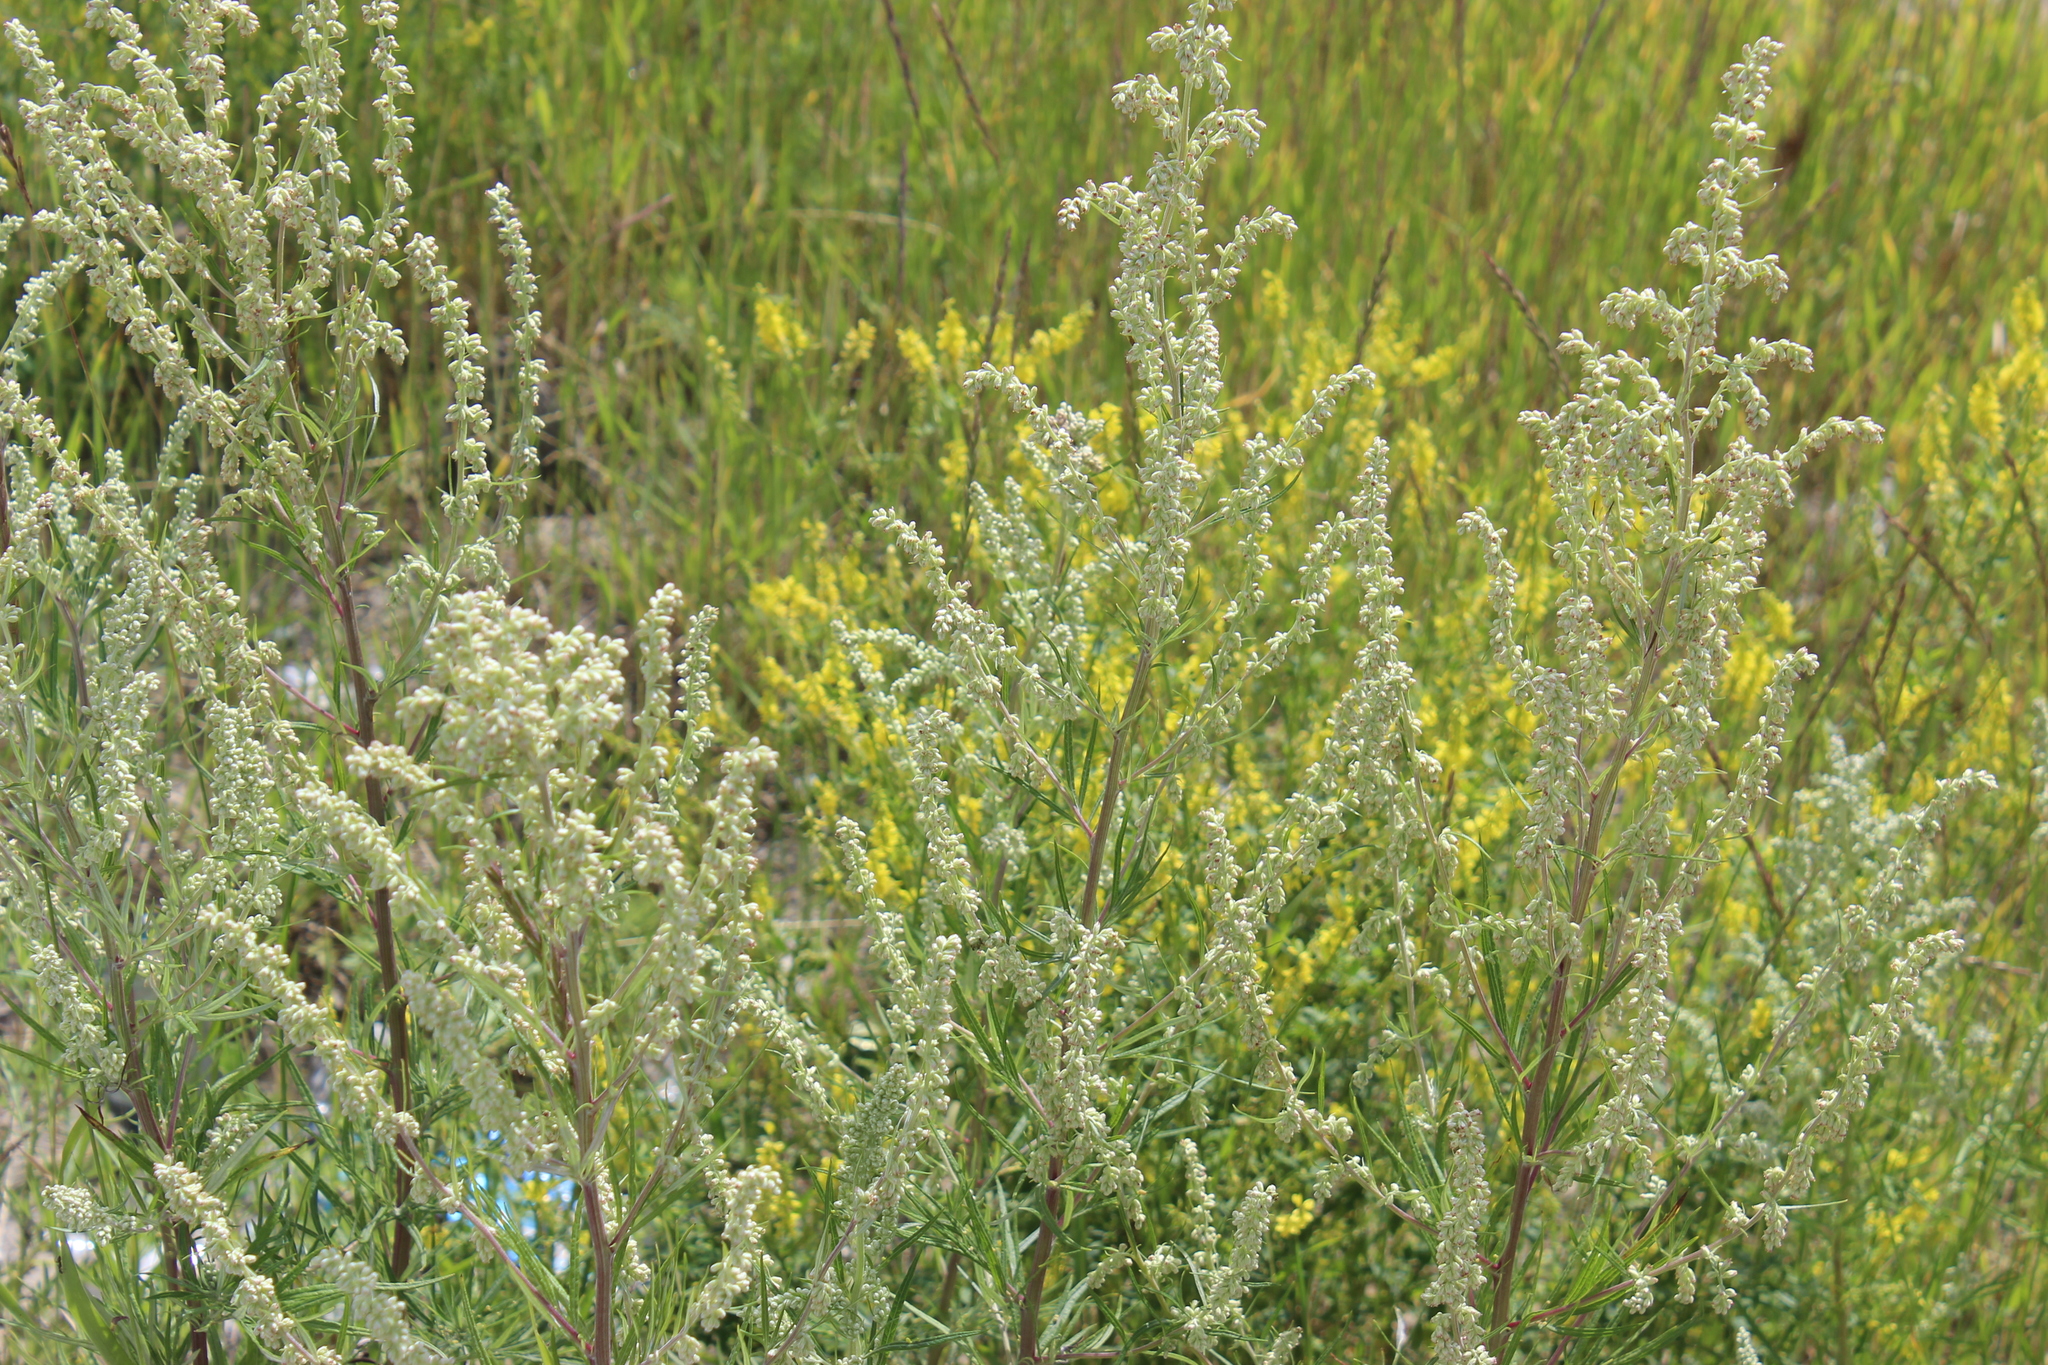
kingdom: Plantae
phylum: Tracheophyta
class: Magnoliopsida
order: Asterales
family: Asteraceae
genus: Artemisia
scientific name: Artemisia vulgaris
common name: Mugwort
